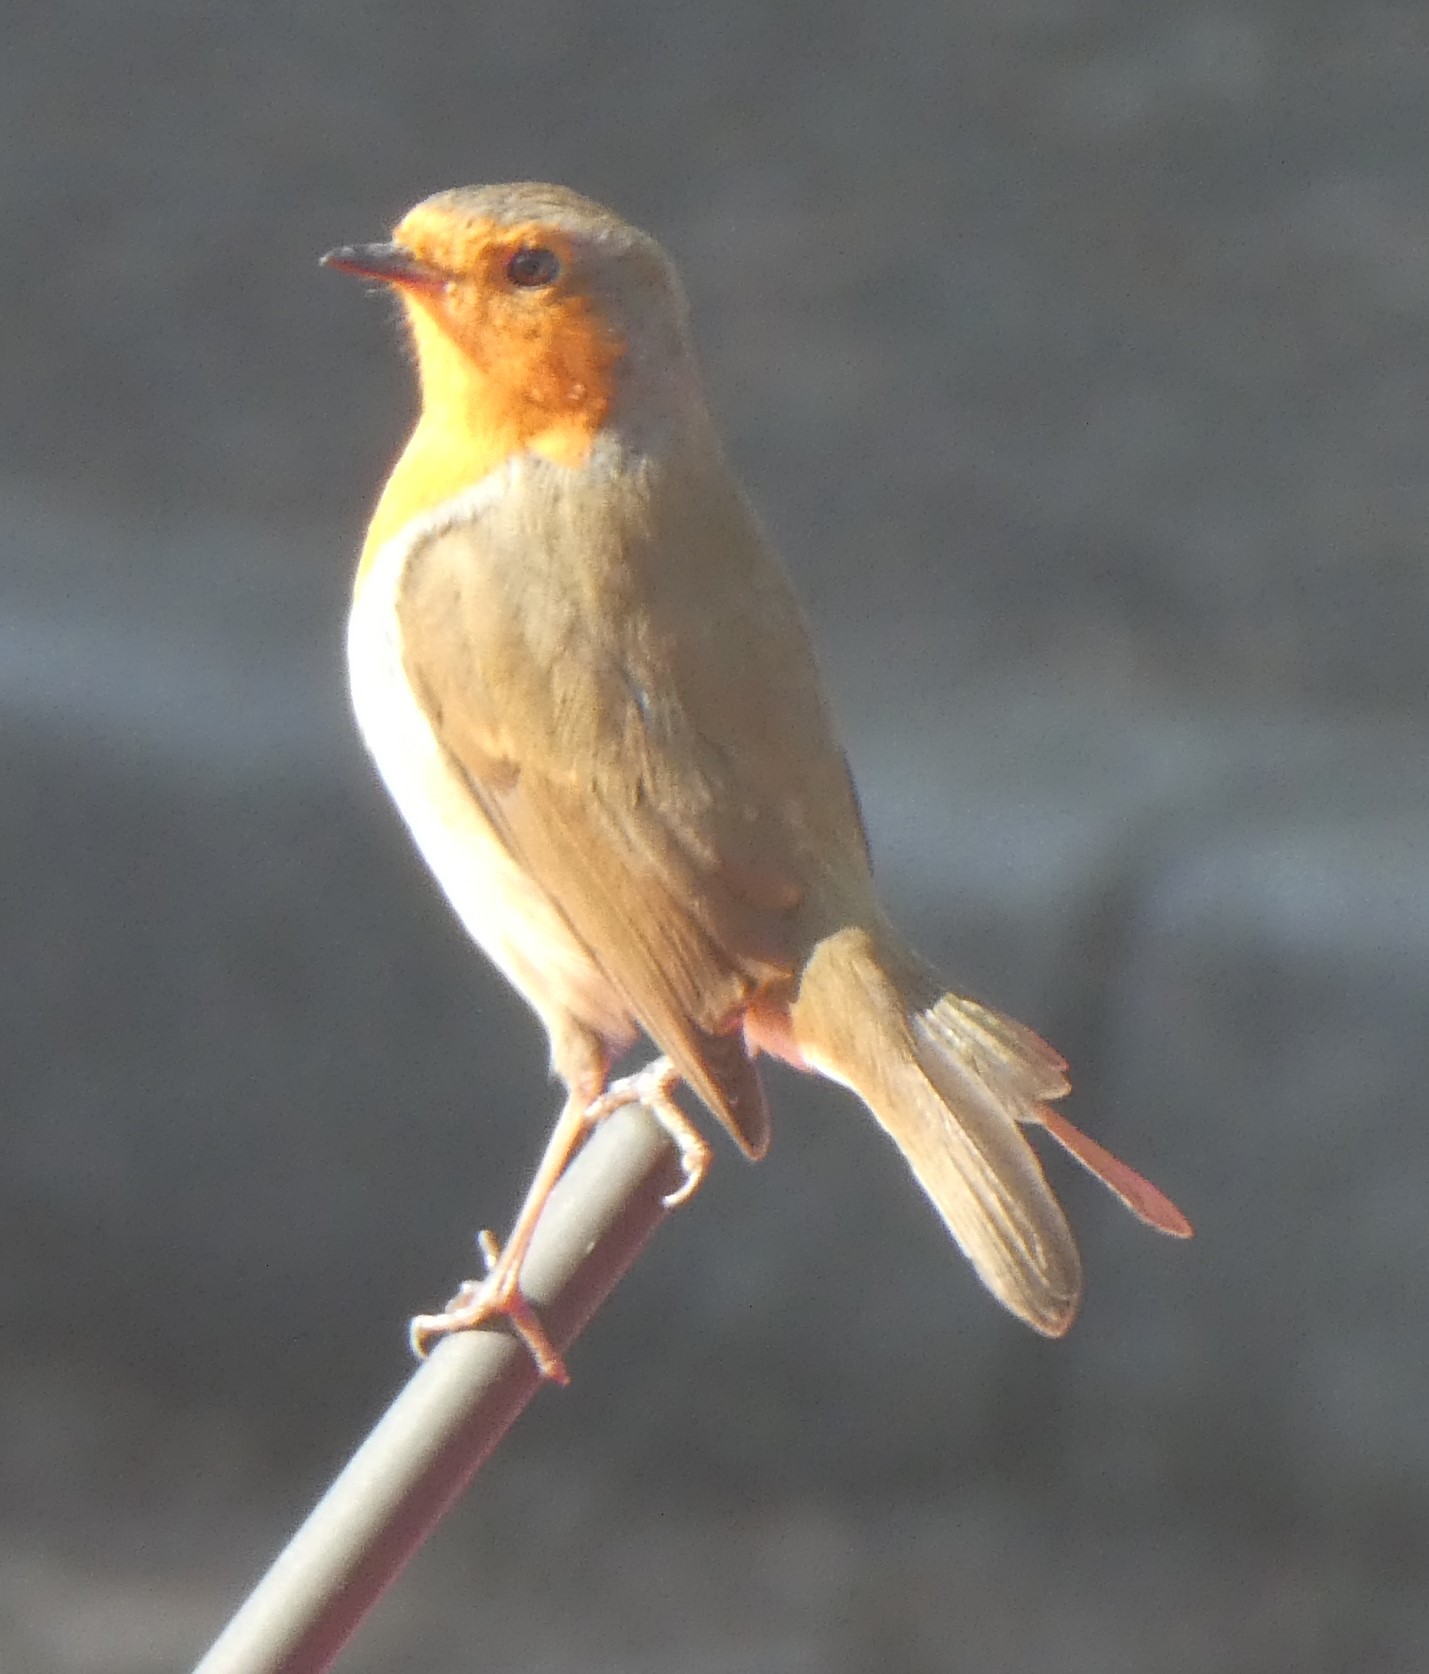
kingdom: Animalia
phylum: Chordata
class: Aves
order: Passeriformes
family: Muscicapidae
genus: Erithacus
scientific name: Erithacus rubecula
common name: European robin
